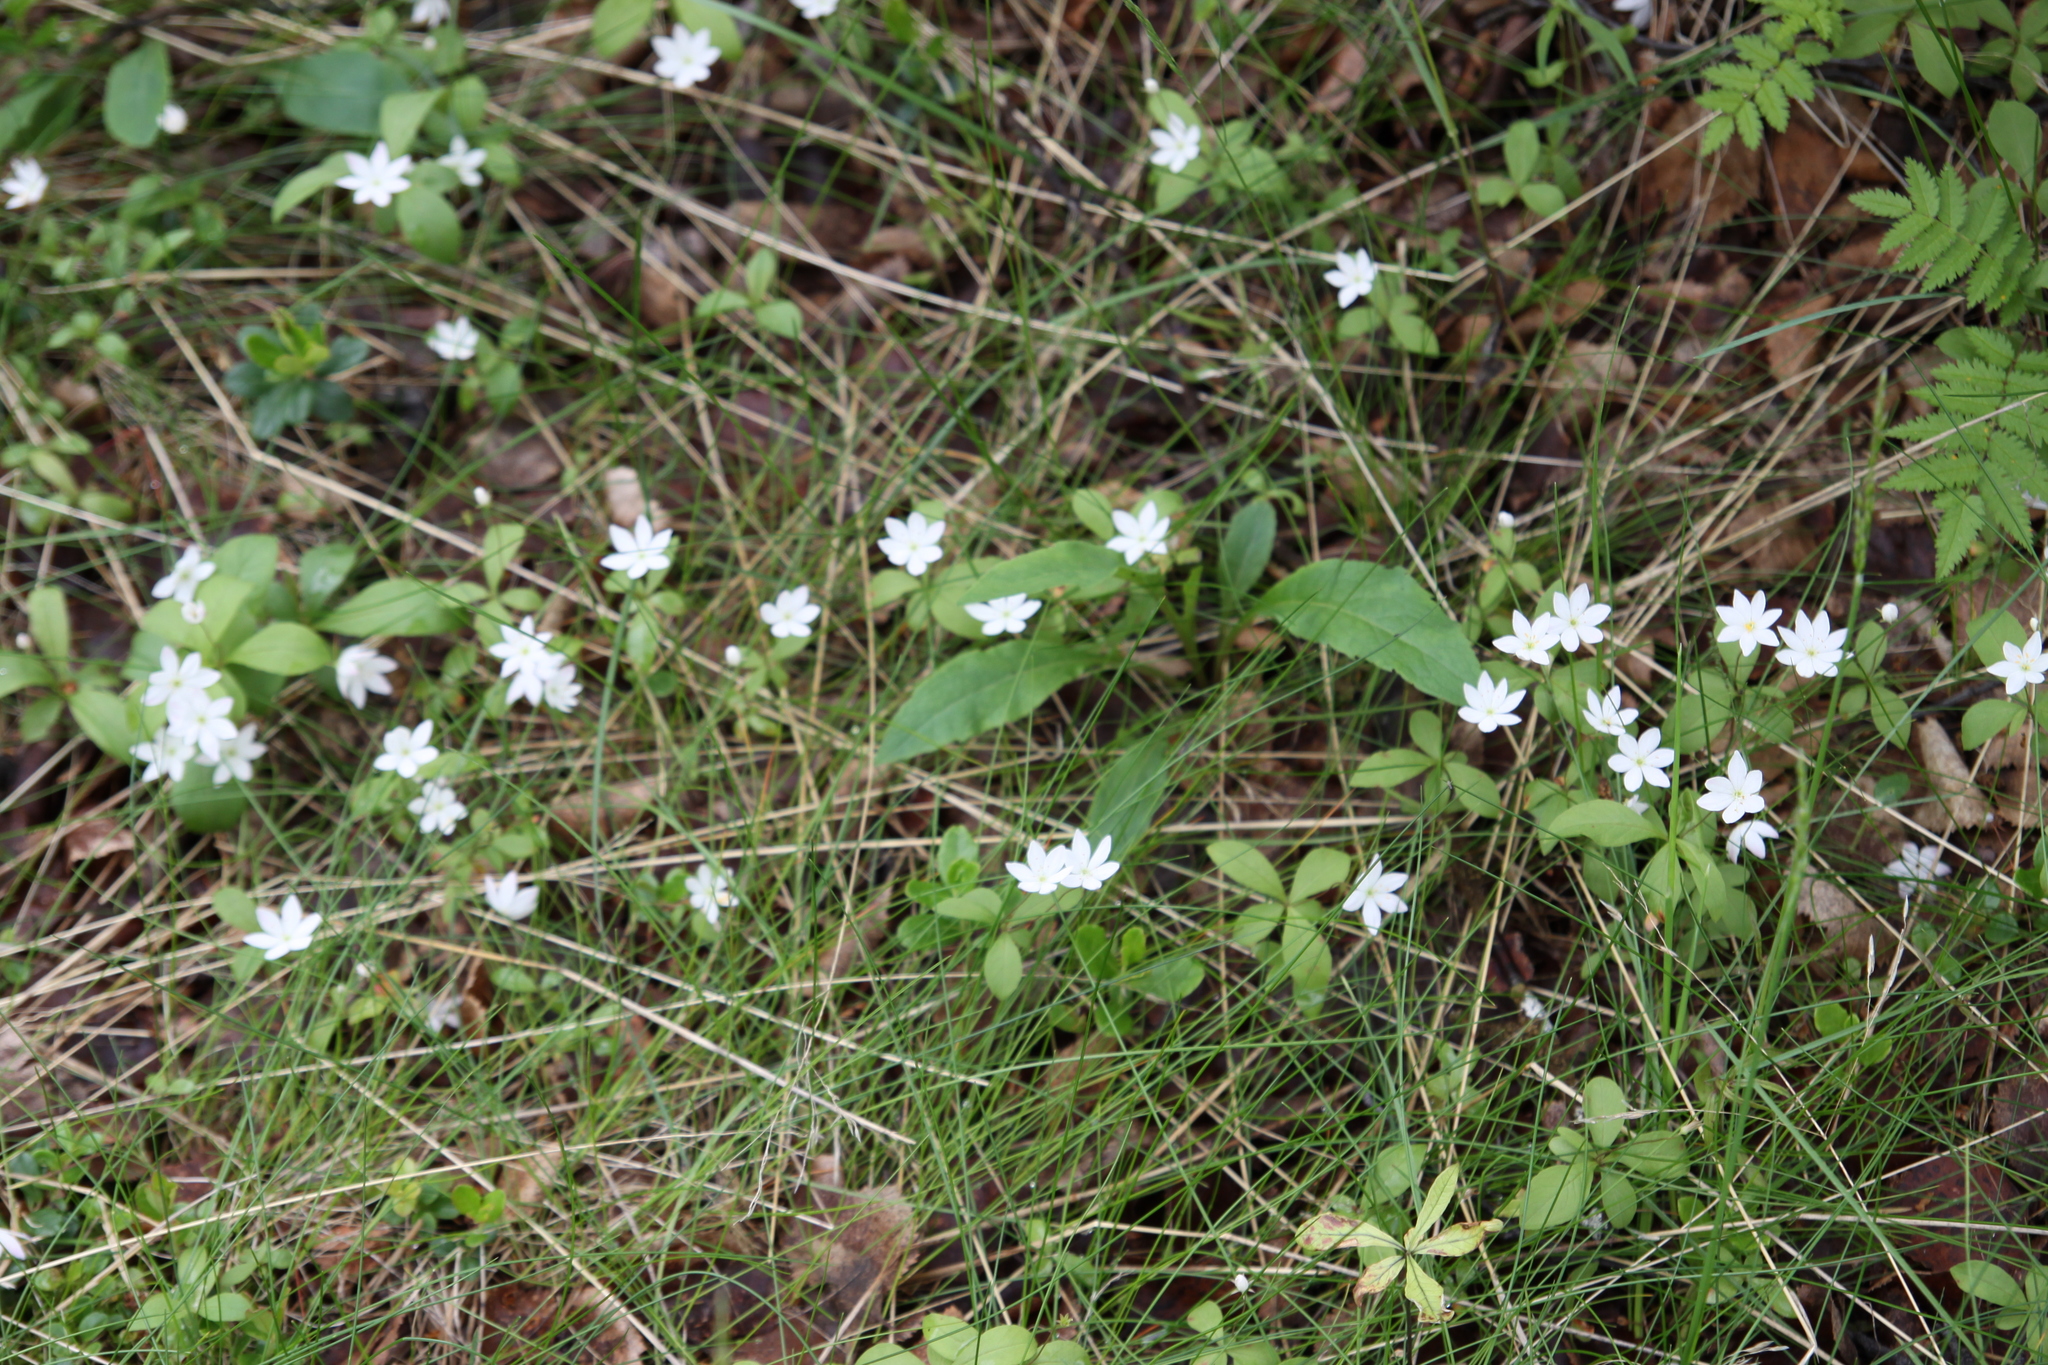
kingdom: Plantae
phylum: Tracheophyta
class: Magnoliopsida
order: Ericales
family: Primulaceae
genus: Lysimachia
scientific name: Lysimachia europaea
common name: Arctic starflower
